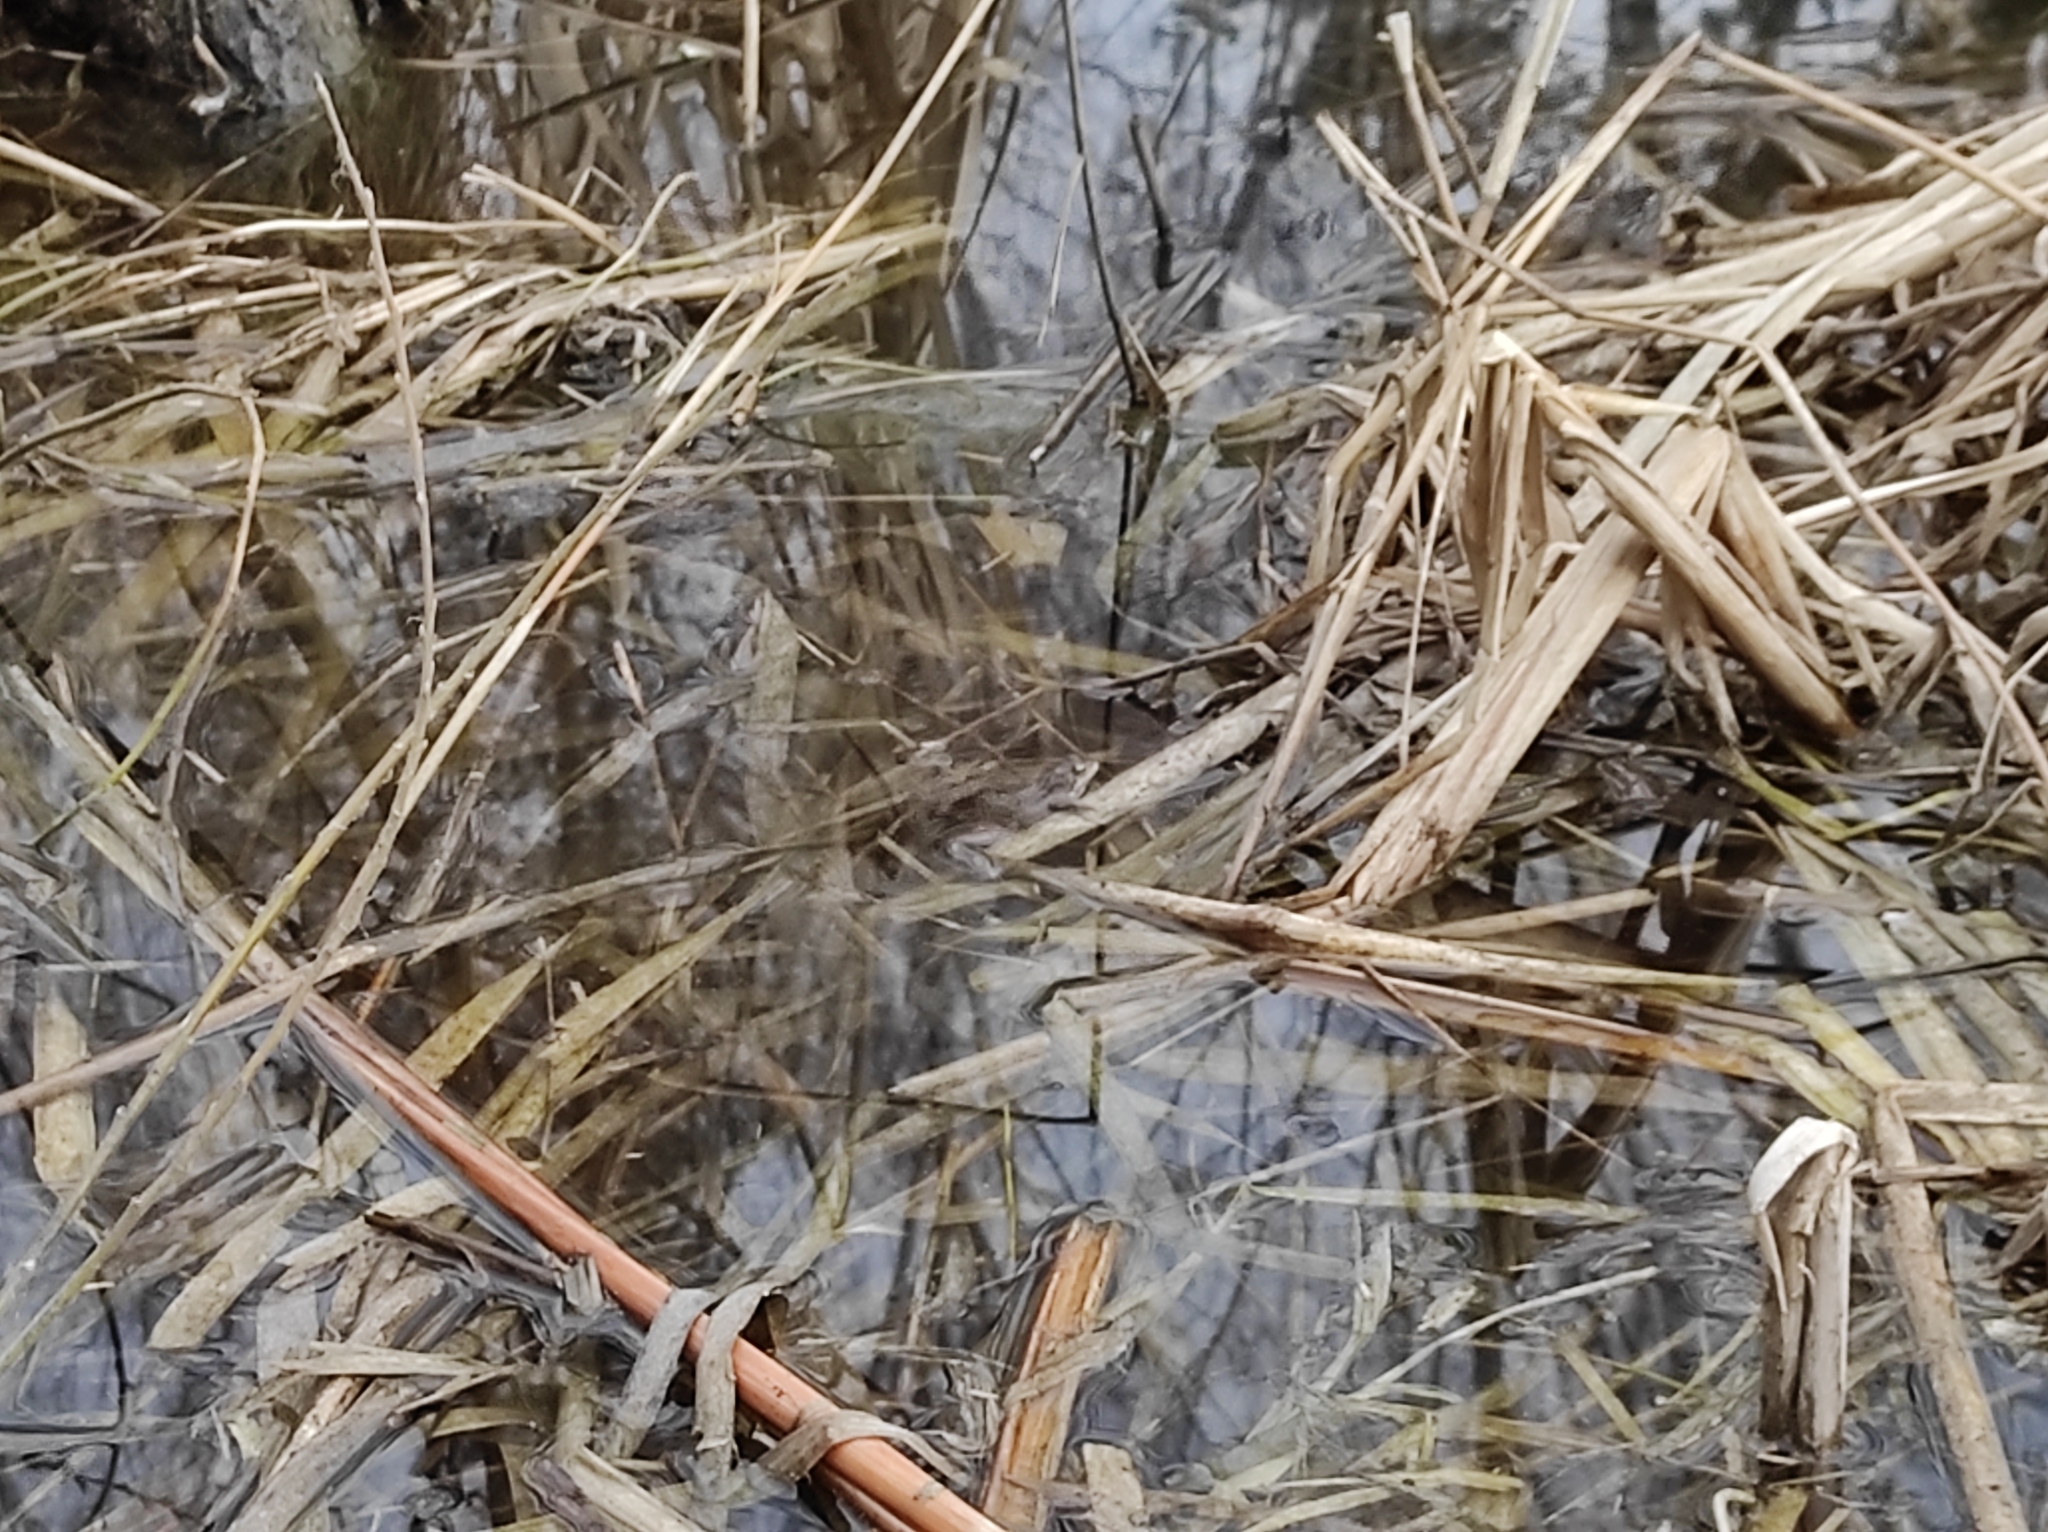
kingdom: Animalia
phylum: Chordata
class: Amphibia
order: Anura
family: Ranidae
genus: Rana
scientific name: Rana arvalis
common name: Moor frog
